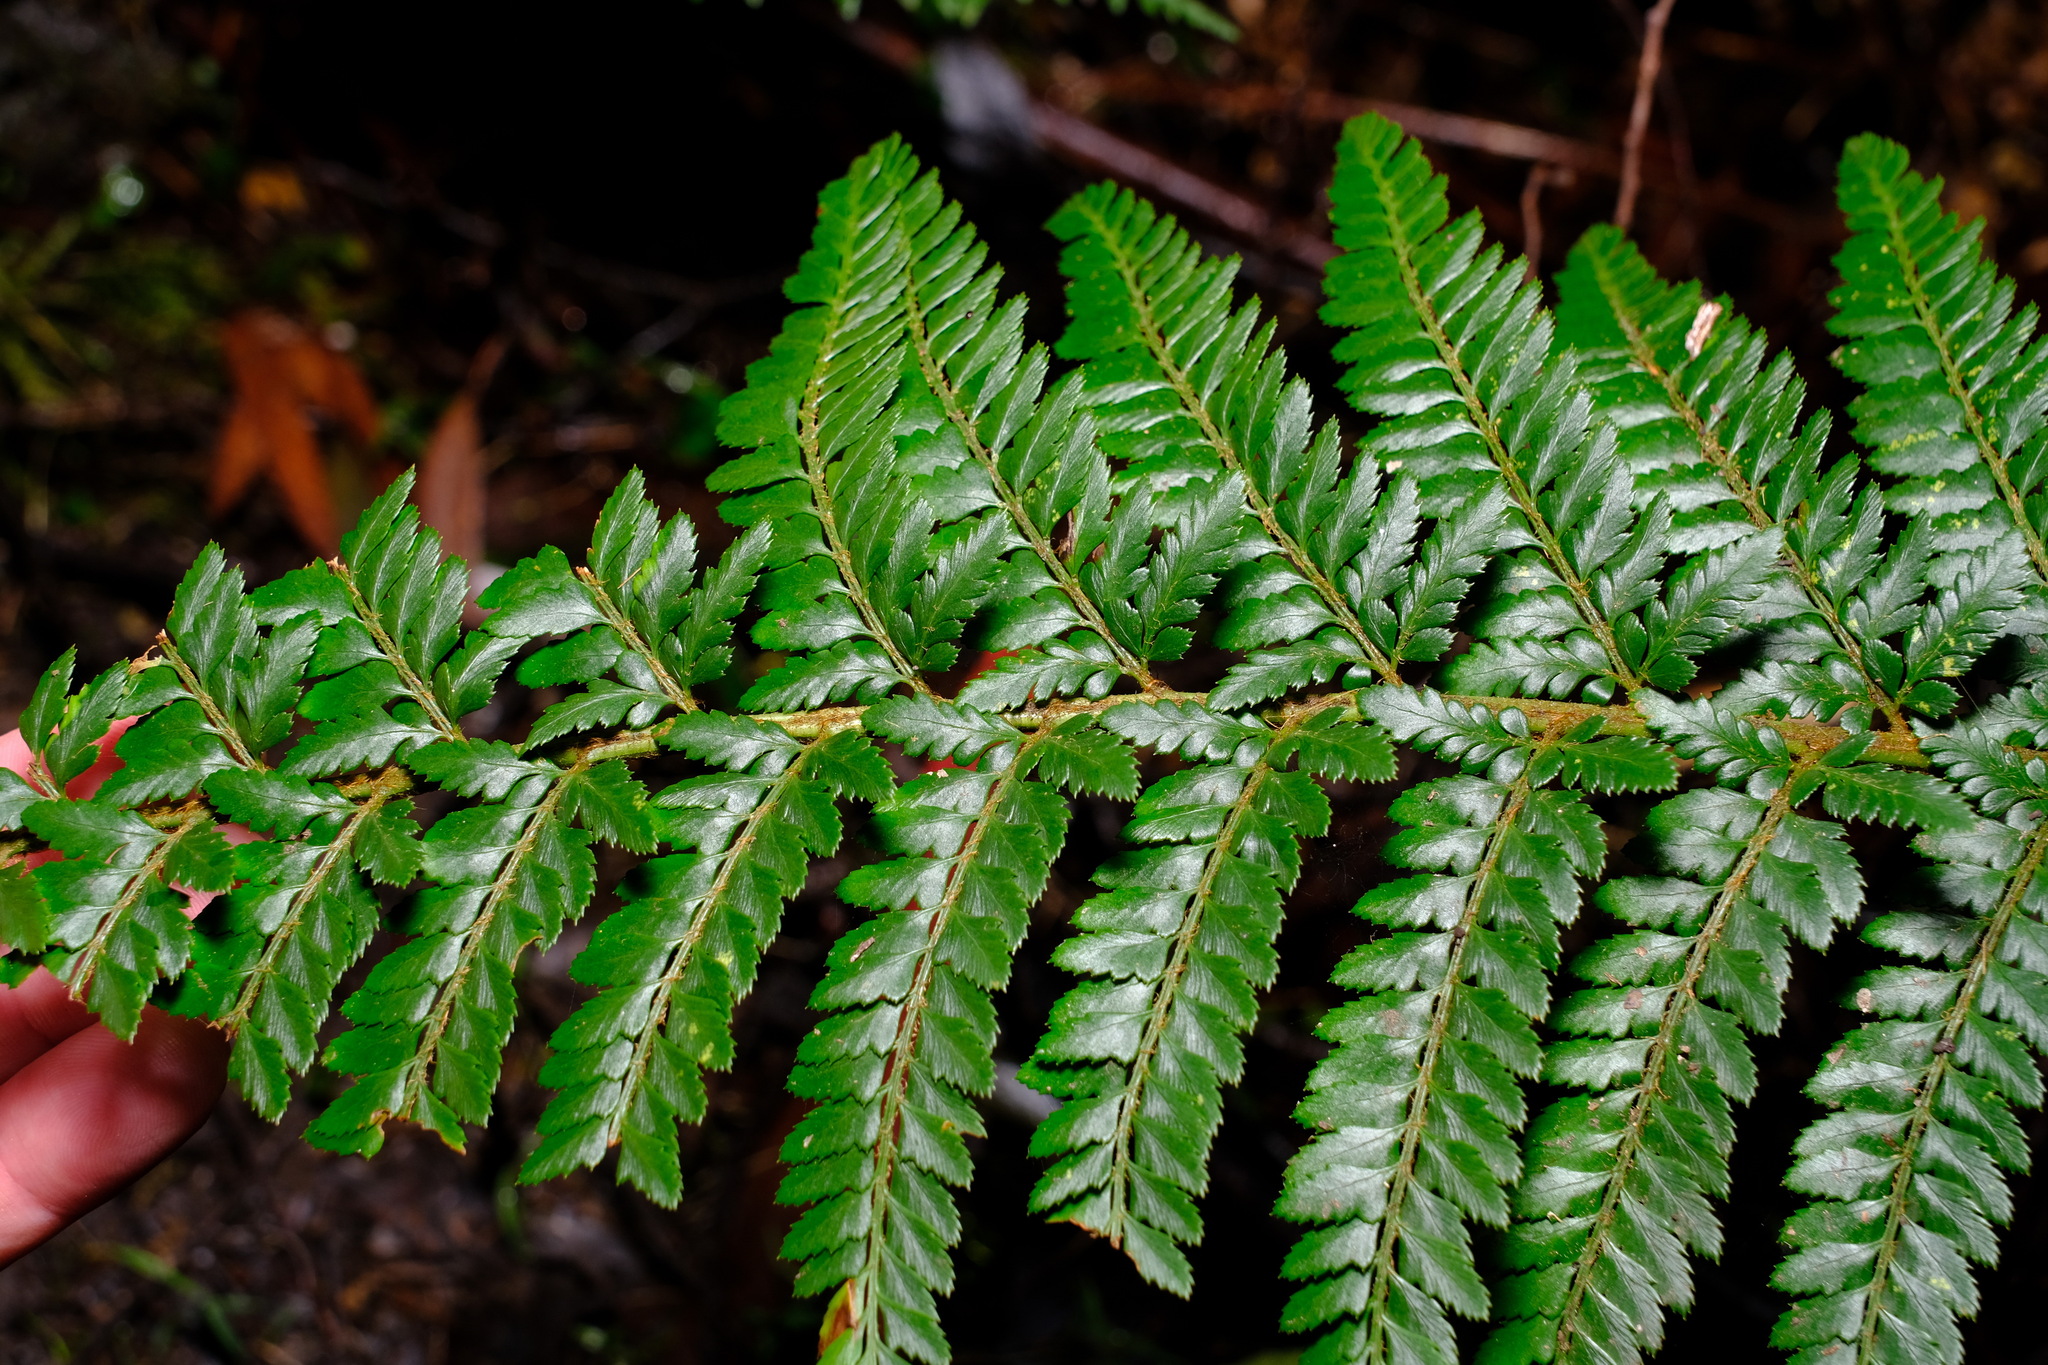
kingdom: Plantae
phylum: Tracheophyta
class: Polypodiopsida
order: Polypodiales
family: Dryopteridaceae
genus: Polystichum
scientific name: Polystichum proliferum
